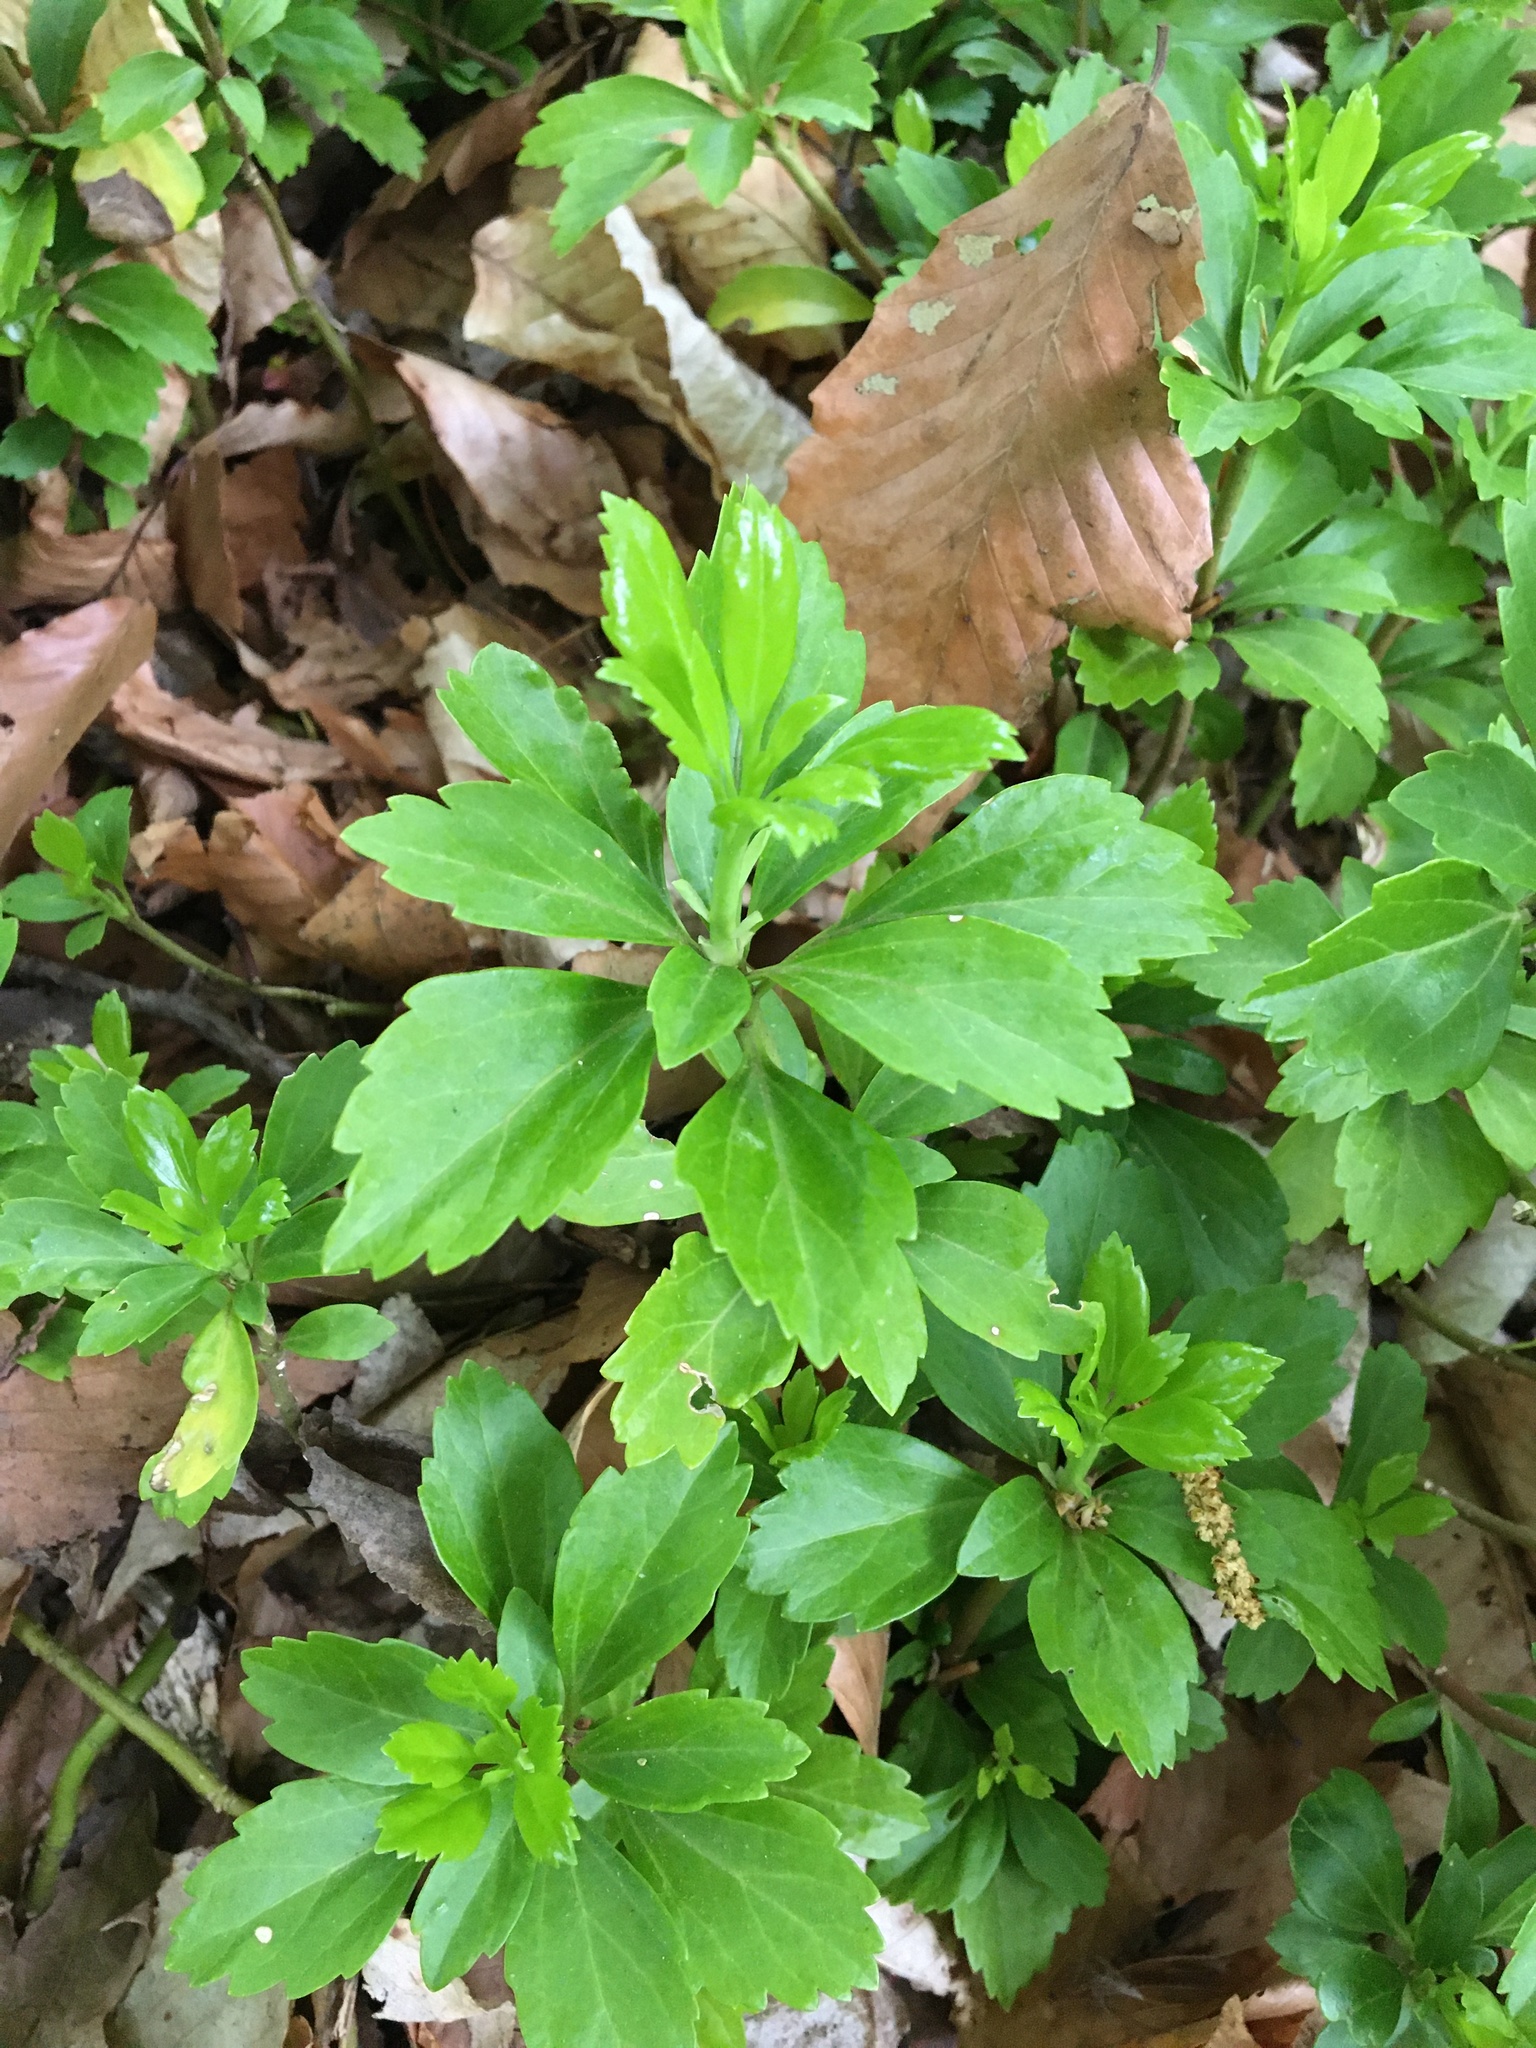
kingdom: Plantae
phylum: Tracheophyta
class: Magnoliopsida
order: Buxales
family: Buxaceae
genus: Pachysandra
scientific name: Pachysandra terminalis
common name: Japanese pachysandra
